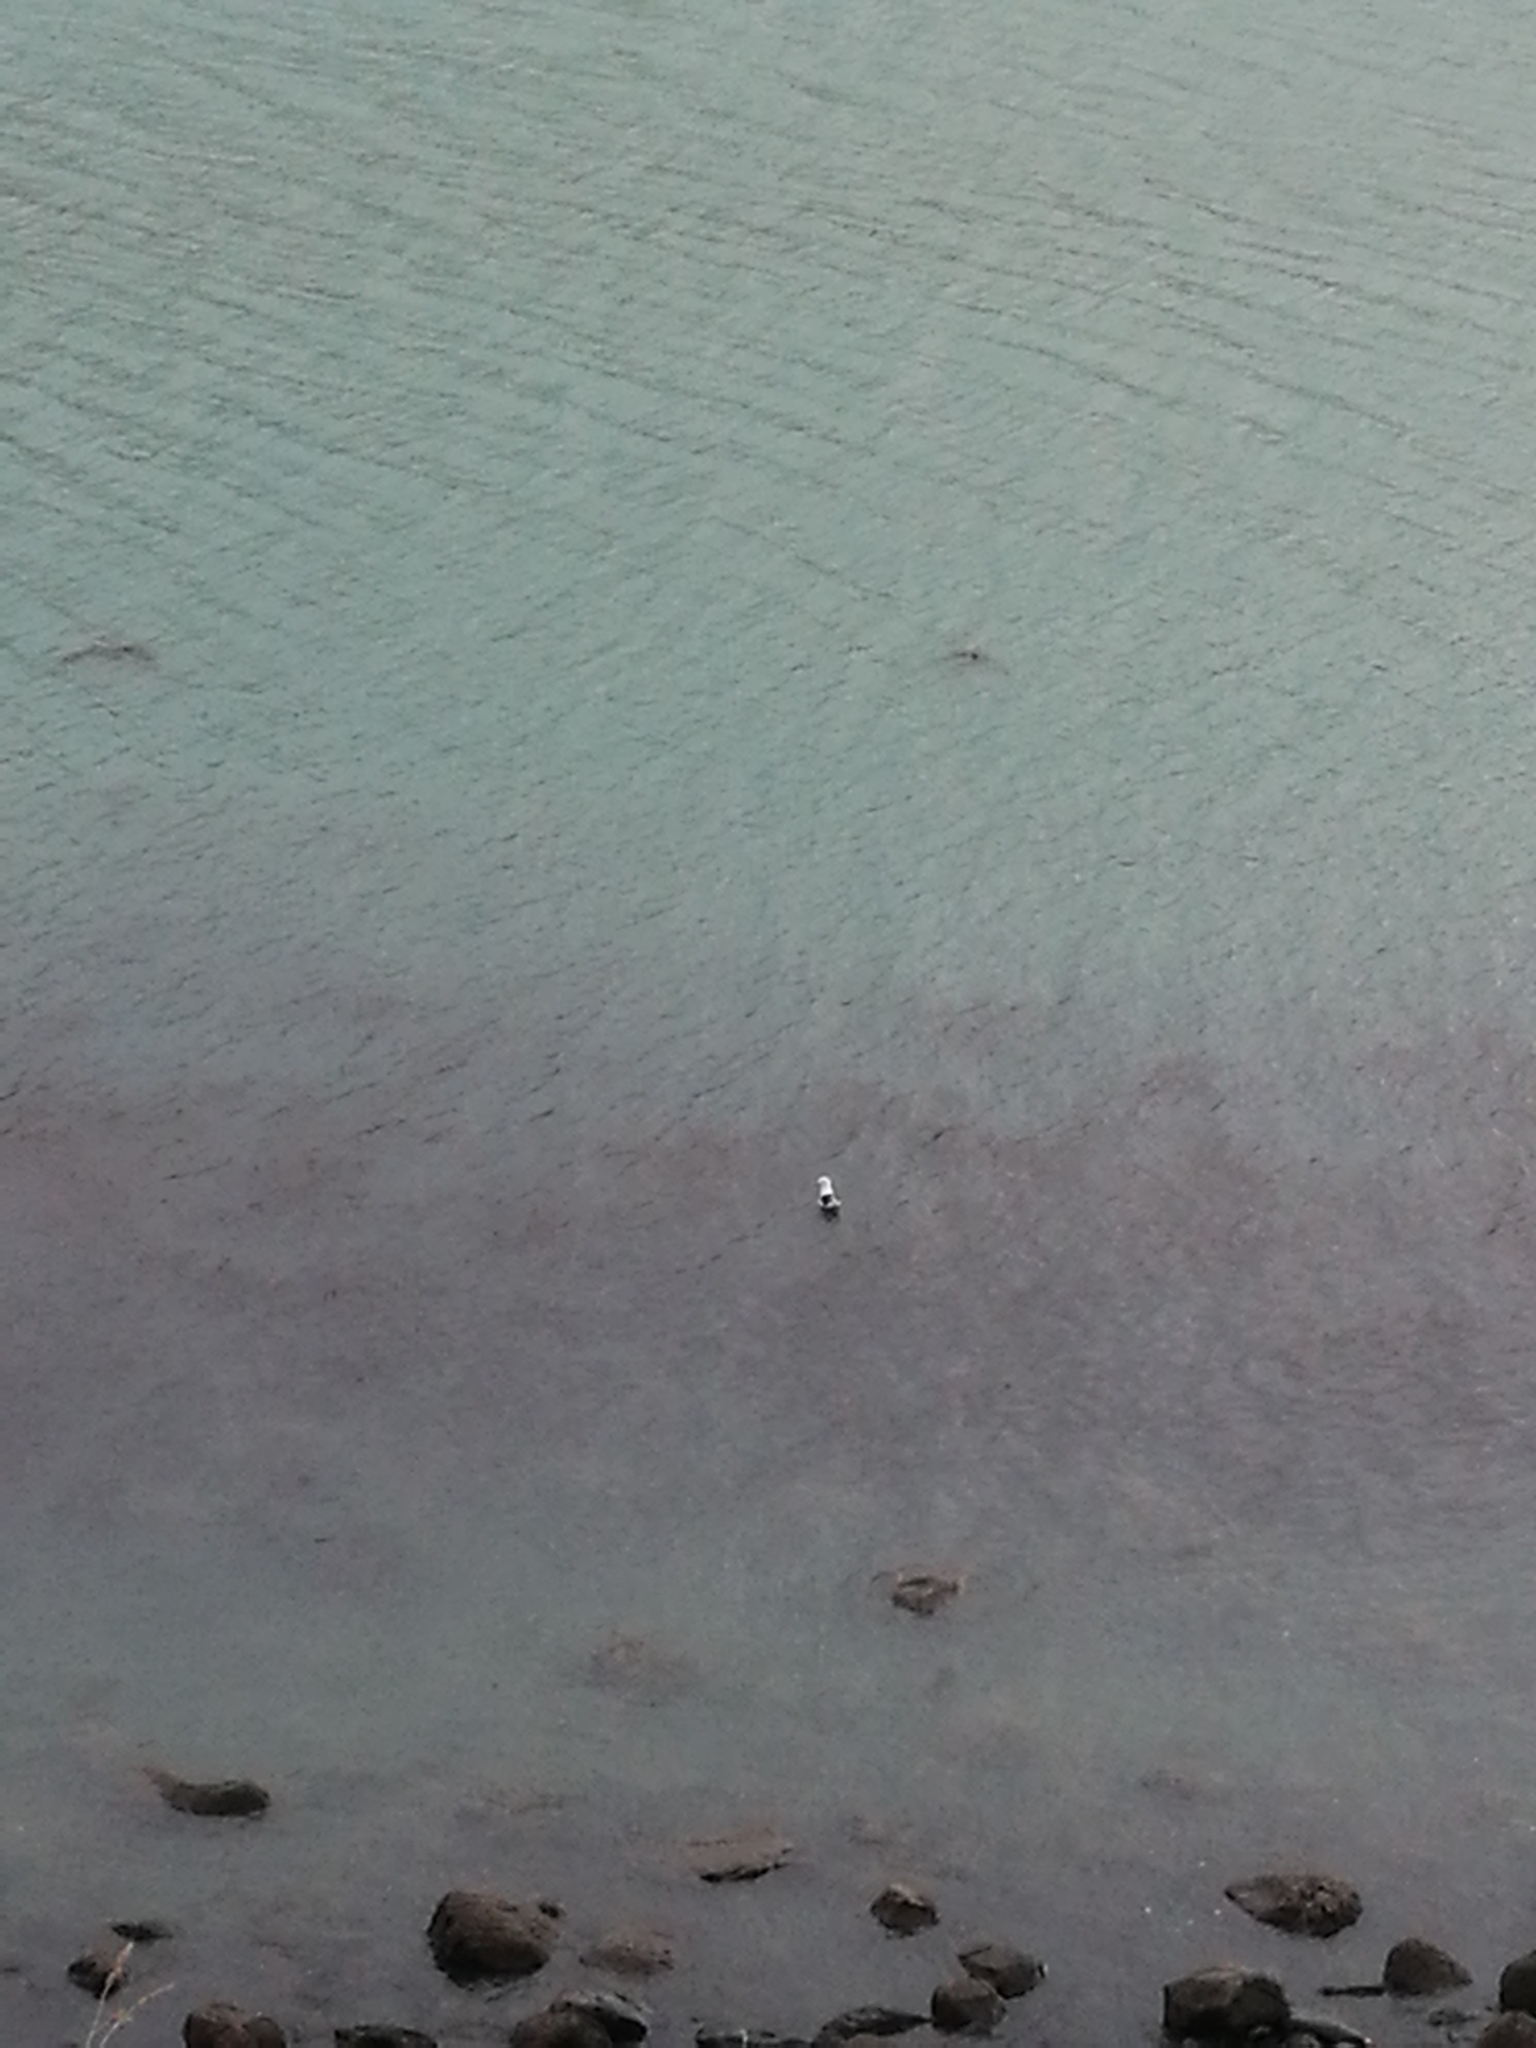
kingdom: Animalia
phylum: Chordata
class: Aves
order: Charadriiformes
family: Laridae
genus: Larus
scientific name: Larus dominicanus
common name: Kelp gull
